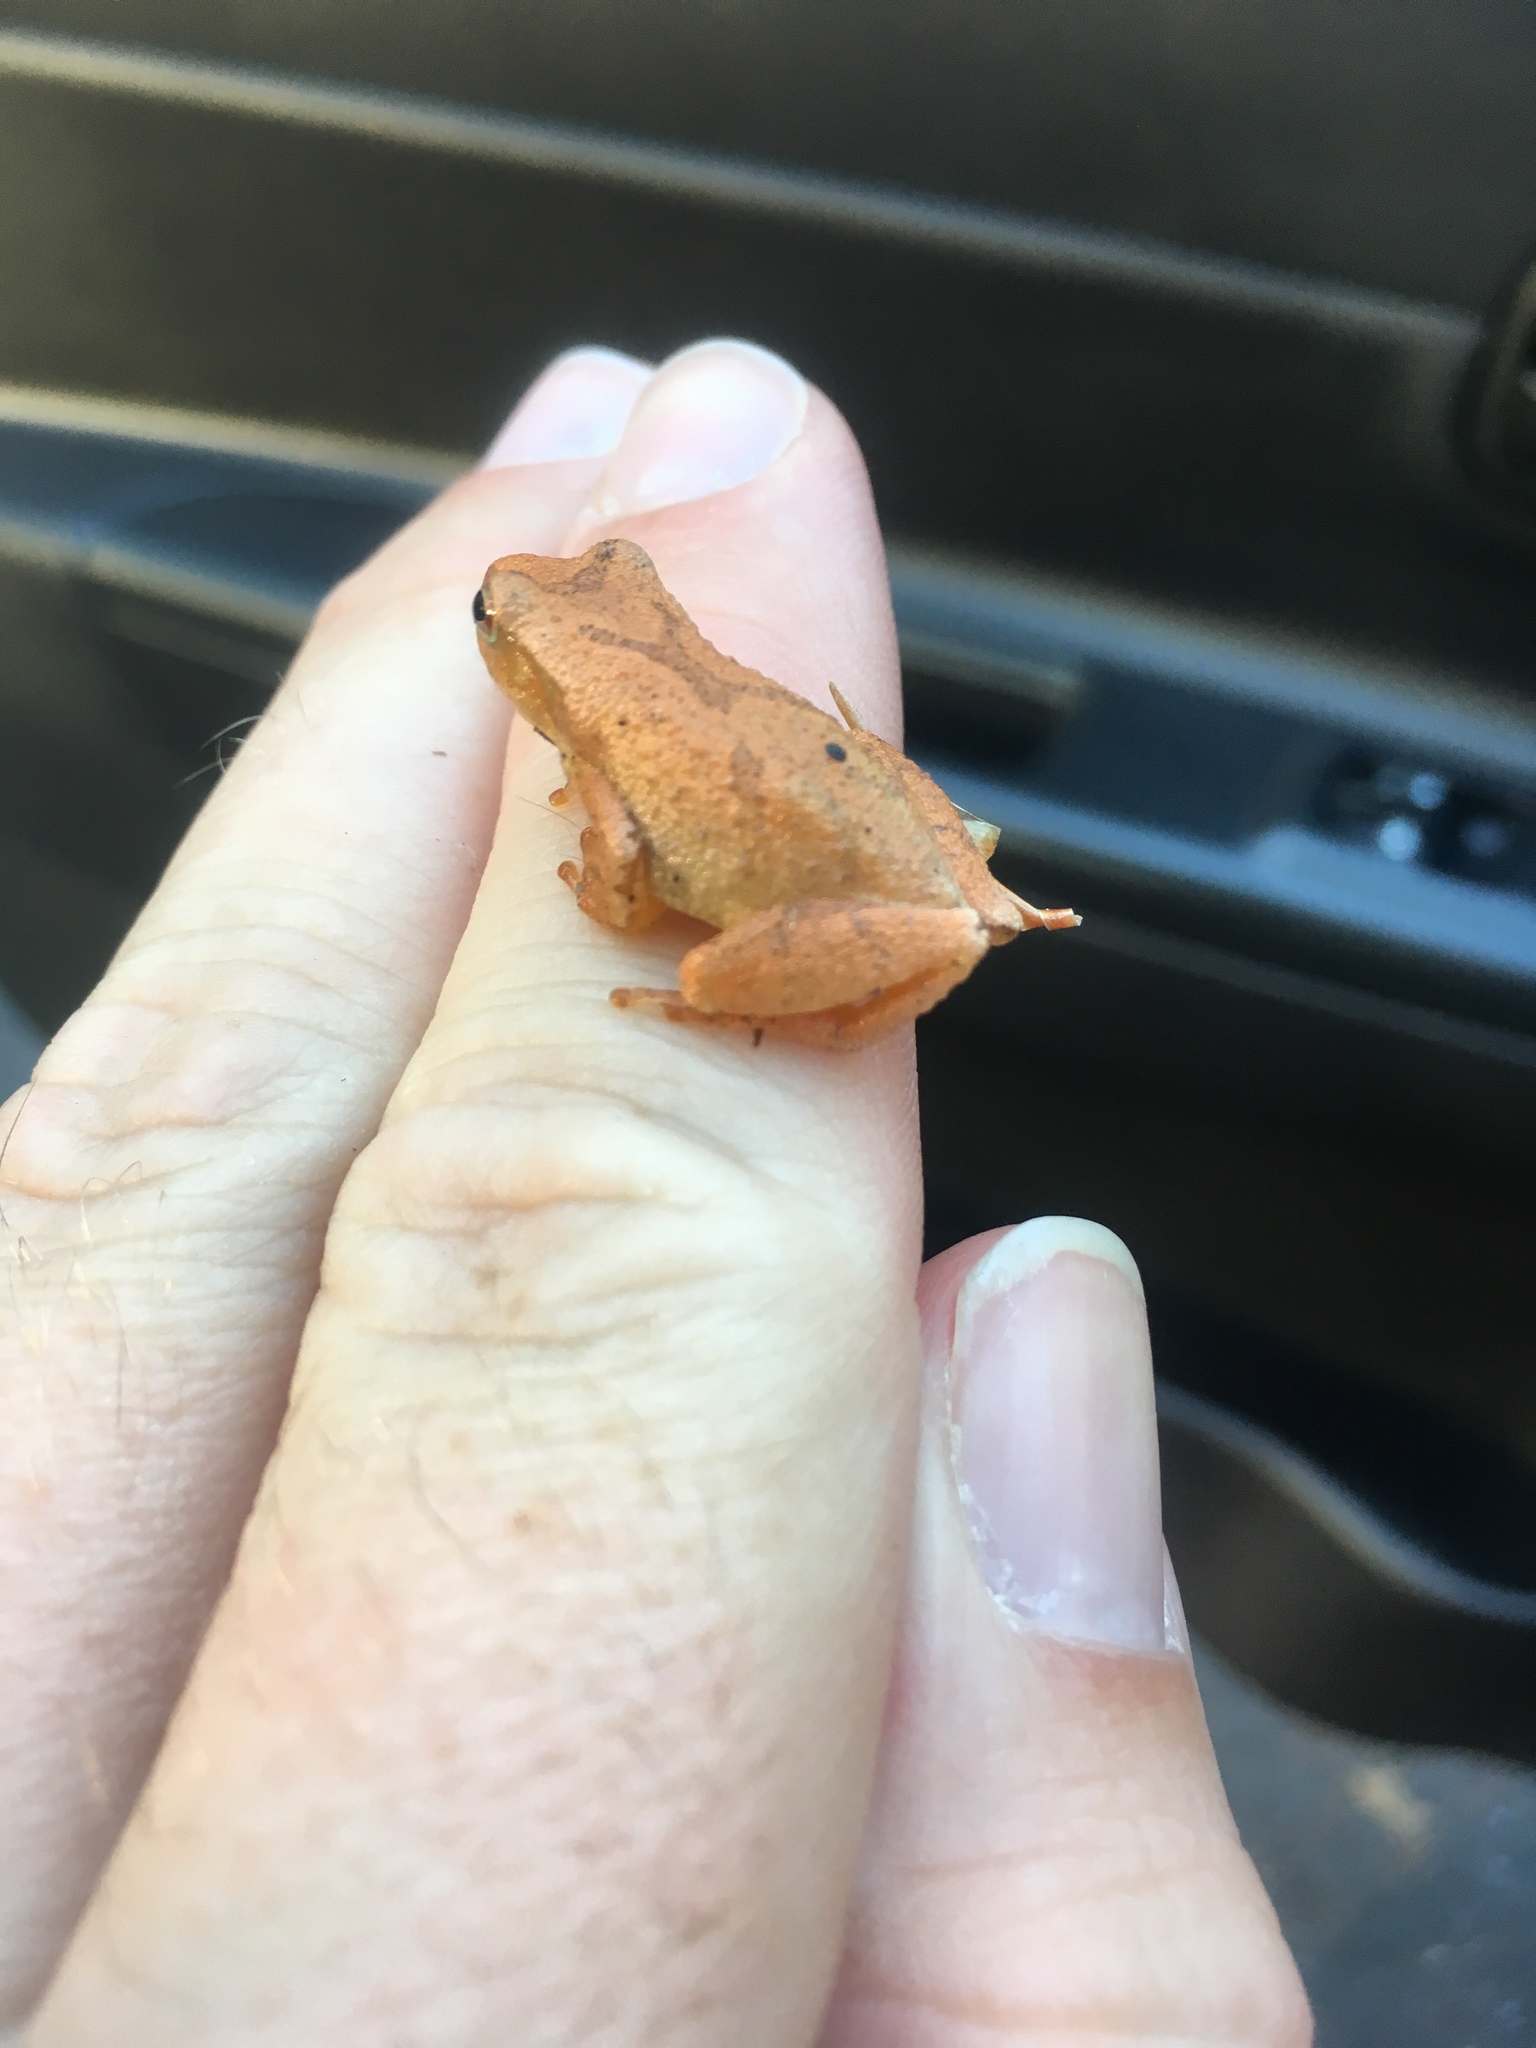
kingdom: Animalia
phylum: Chordata
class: Amphibia
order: Anura
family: Hylidae
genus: Pseudacris
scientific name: Pseudacris crucifer
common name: Spring peeper
